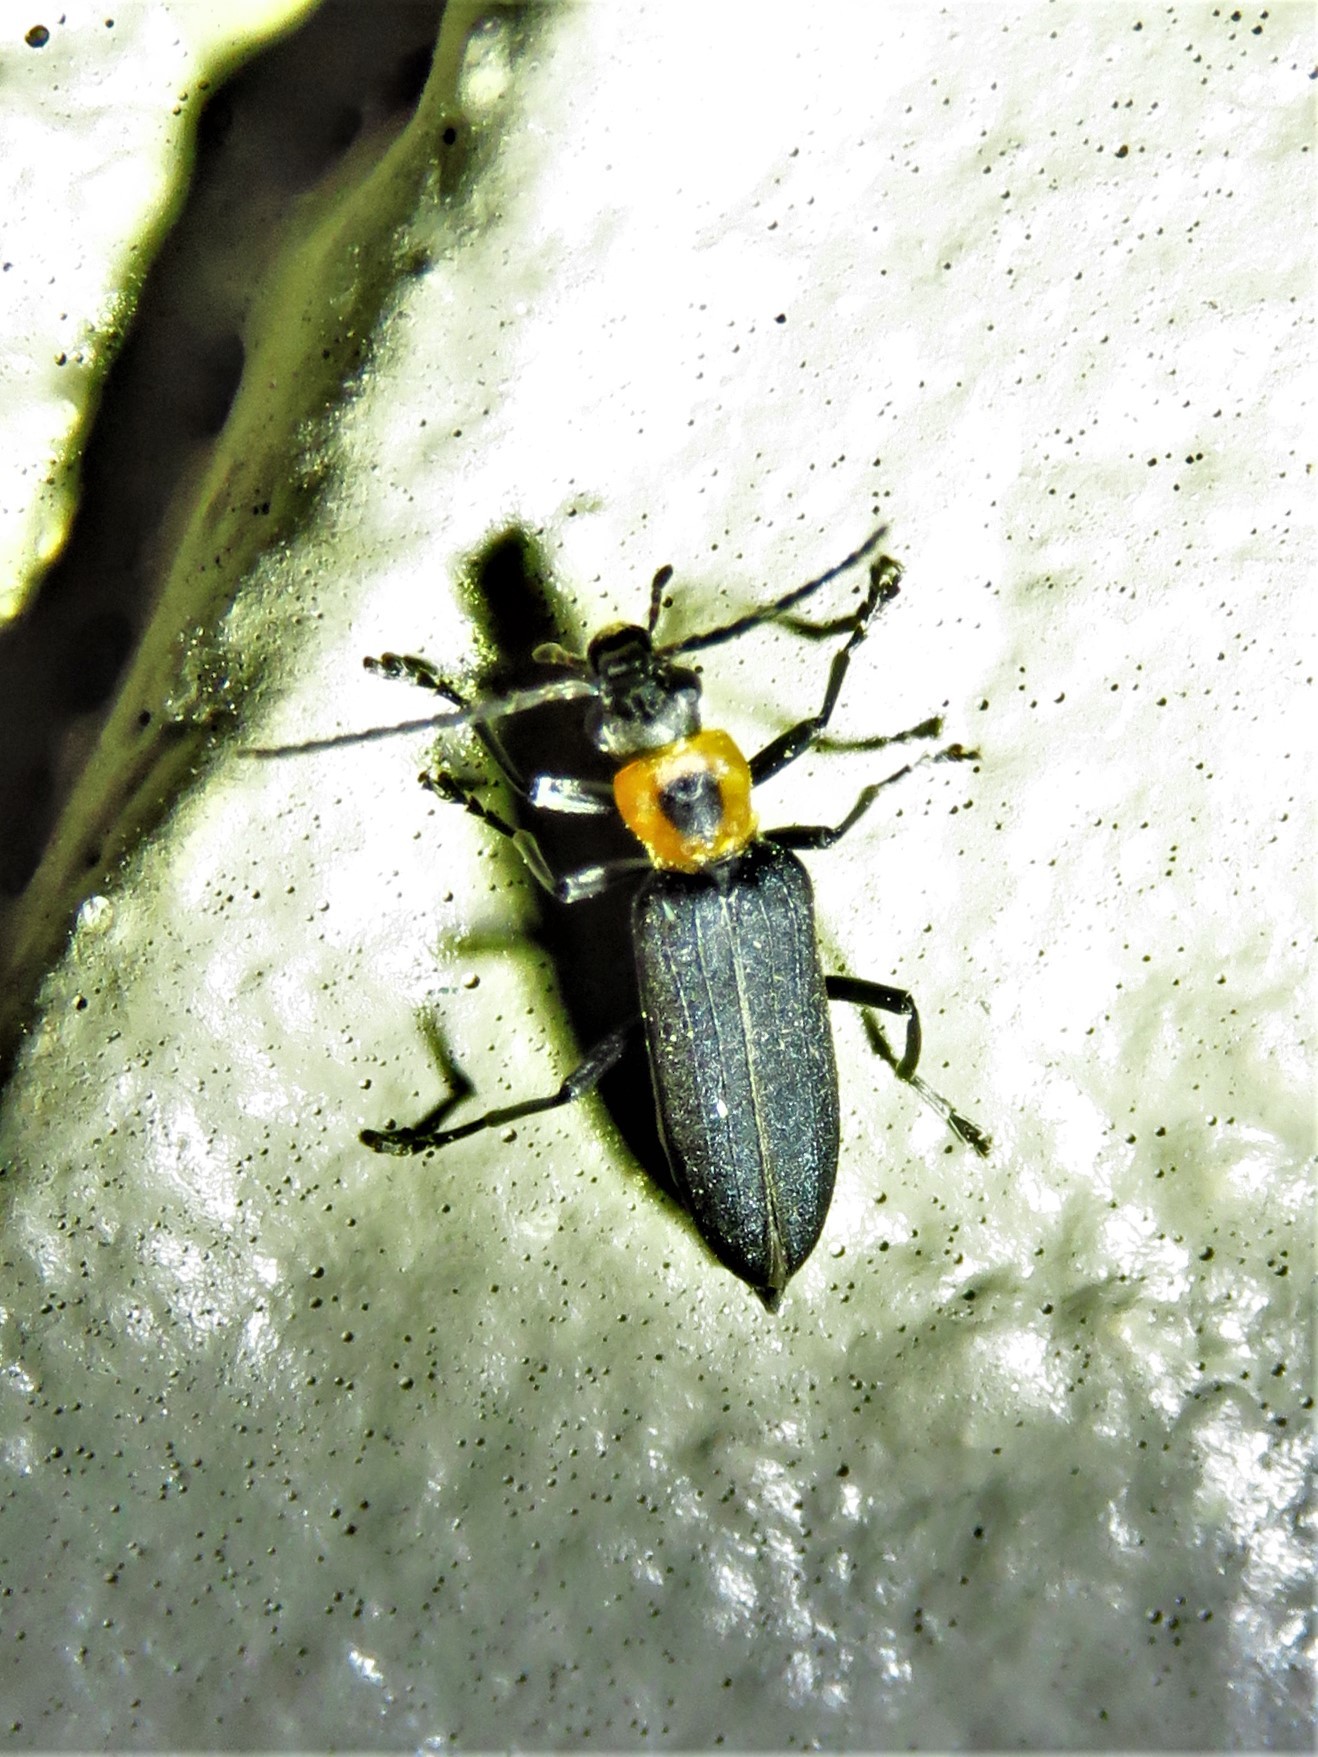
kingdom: Animalia
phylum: Arthropoda
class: Insecta
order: Coleoptera
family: Oedemeridae
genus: Ischnomera
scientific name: Ischnomera
